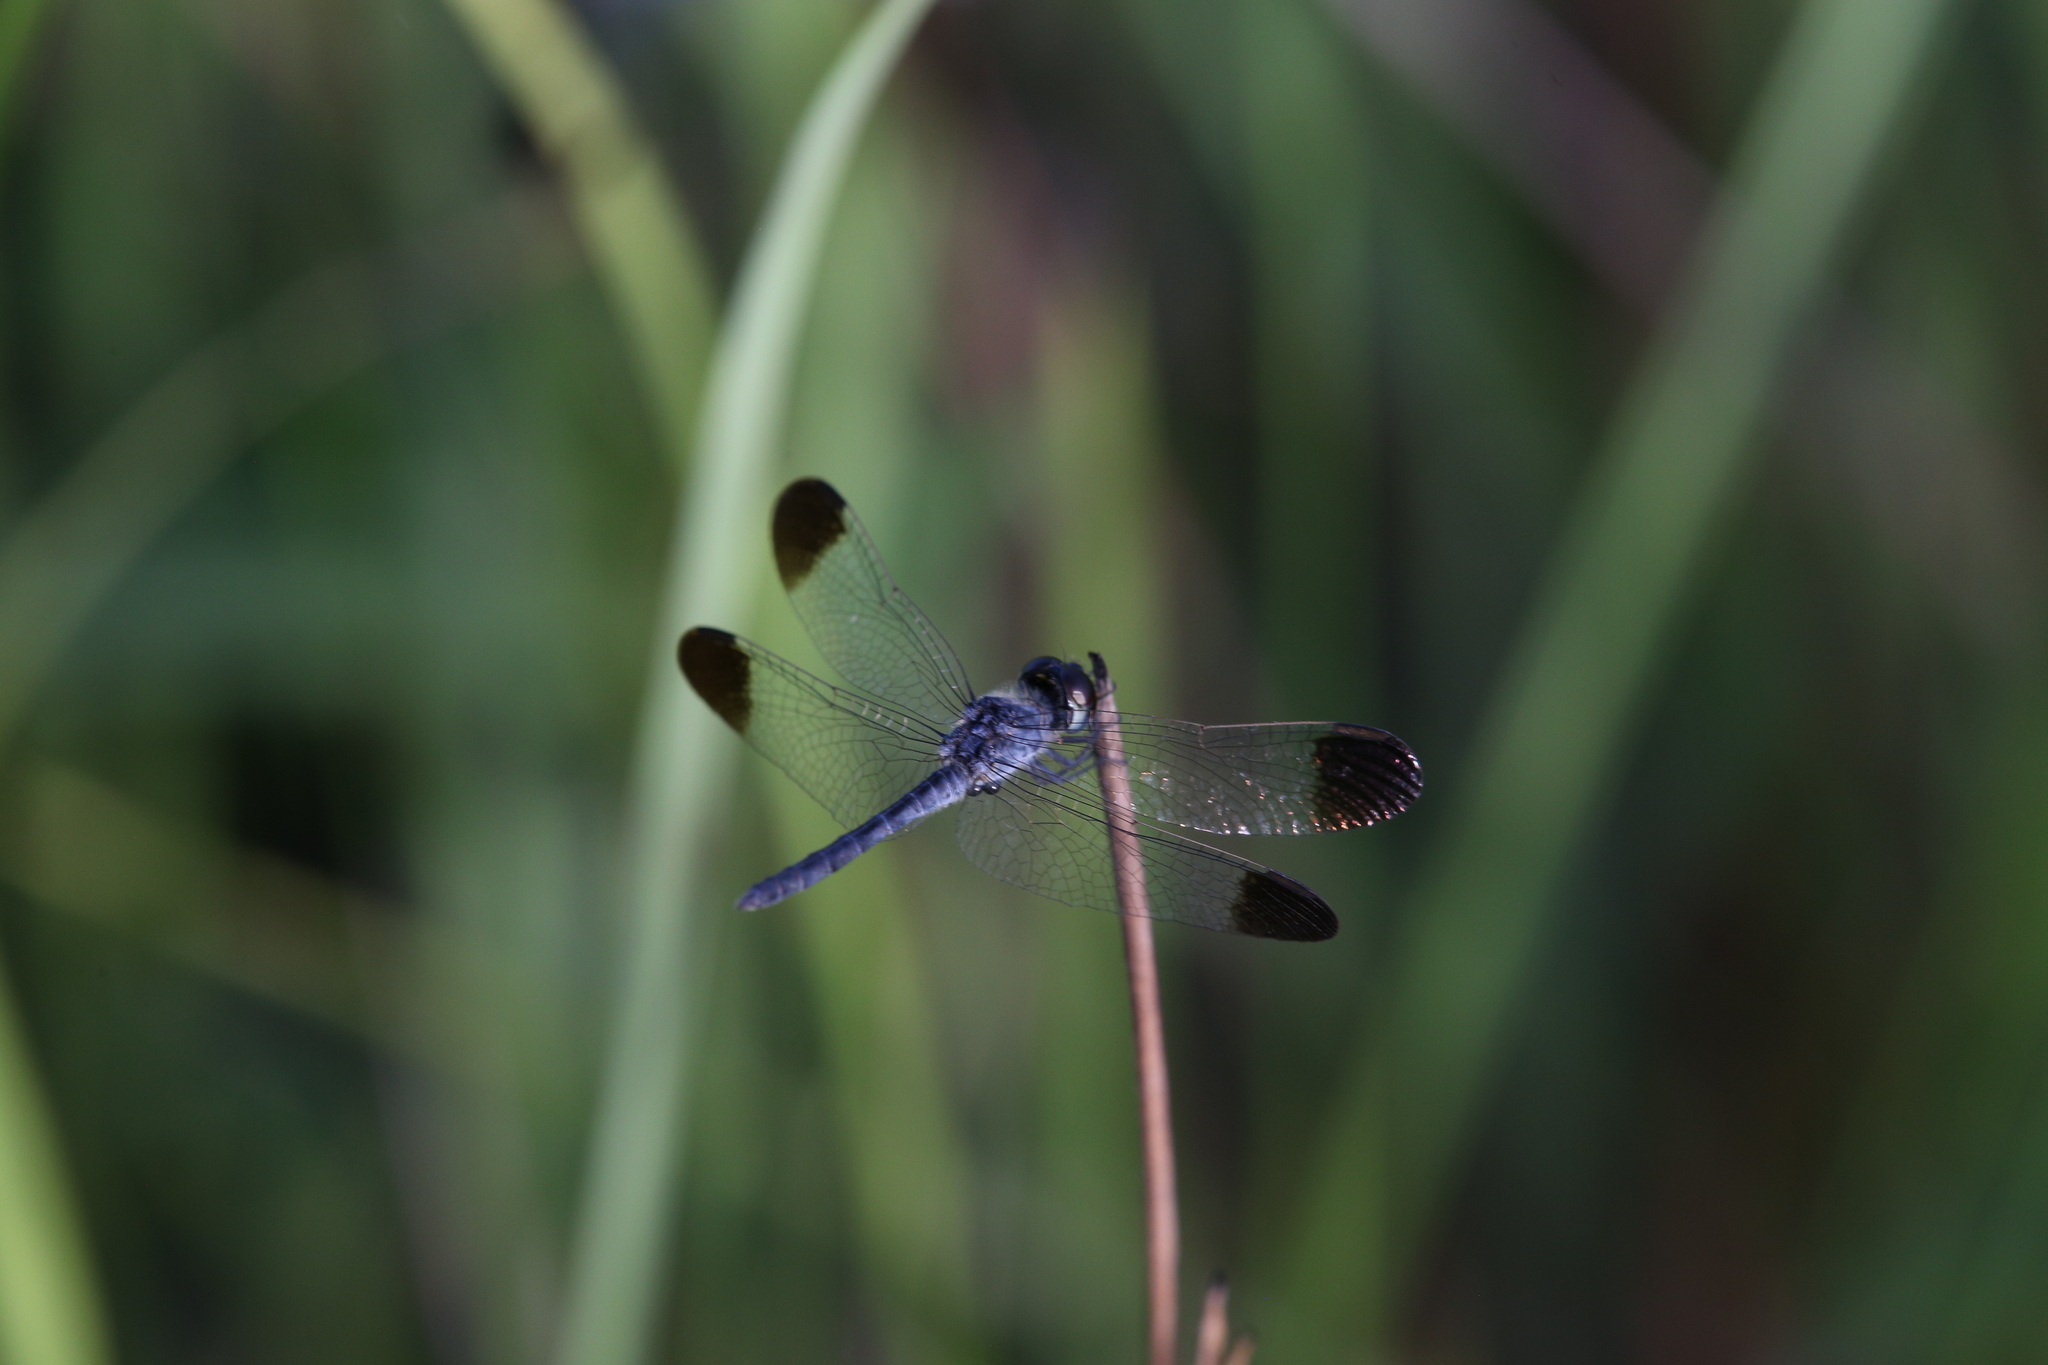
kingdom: Animalia
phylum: Arthropoda
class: Insecta
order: Odonata
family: Libellulidae
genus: Diplacodes
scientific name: Diplacodes nebulosa
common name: Black-tipped percher
